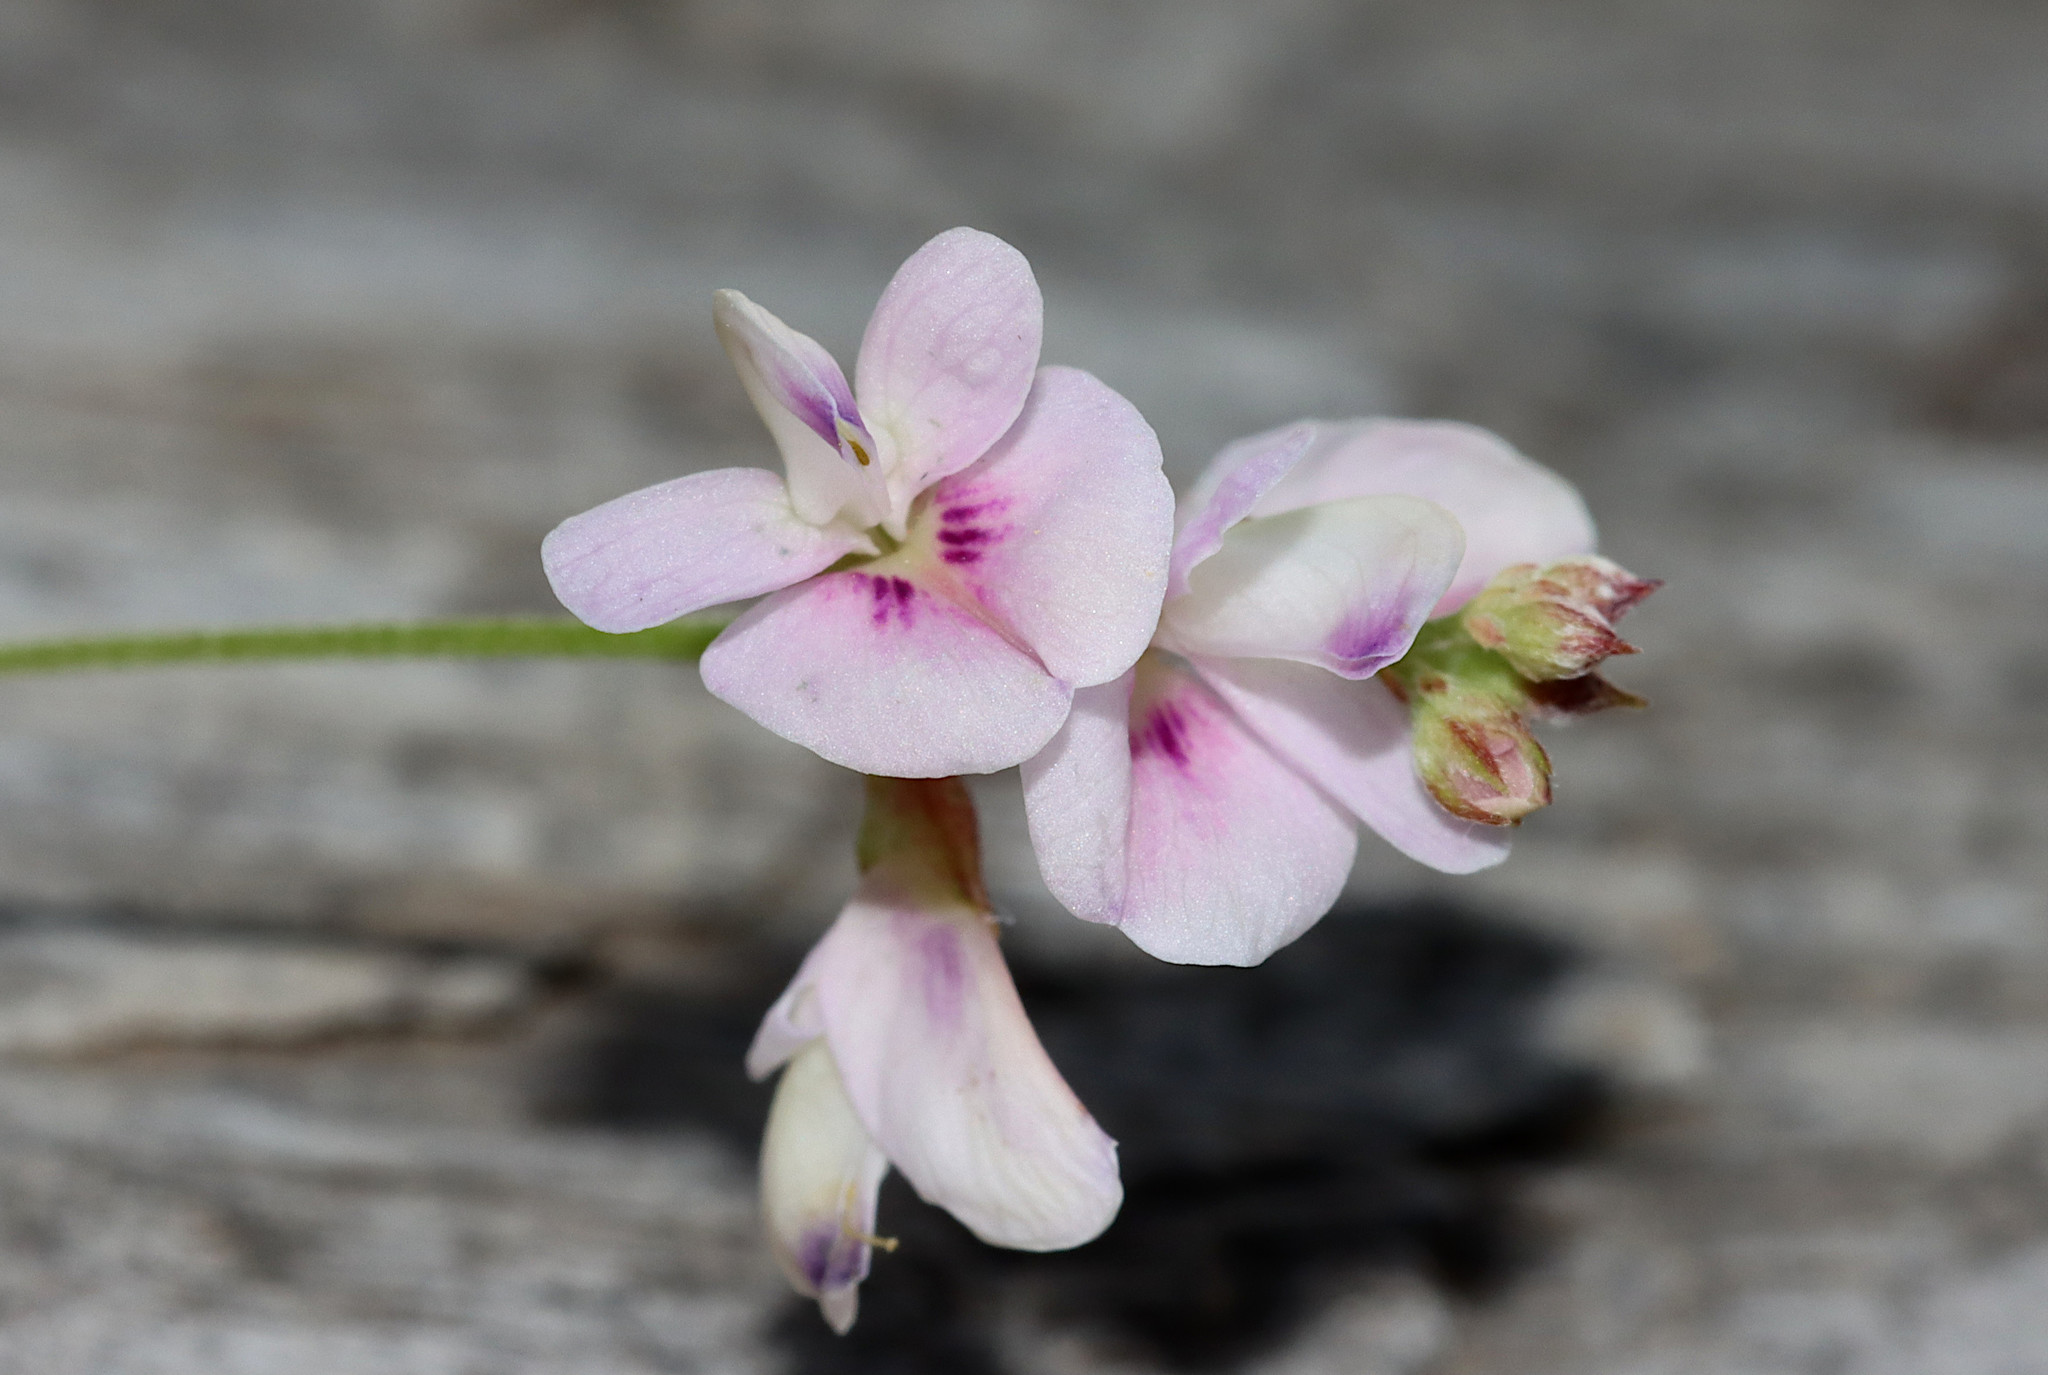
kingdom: Plantae
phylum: Tracheophyta
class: Magnoliopsida
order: Fabales
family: Fabaceae
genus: Lespedeza
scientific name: Lespedeza repens
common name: Creeping bush-clover
